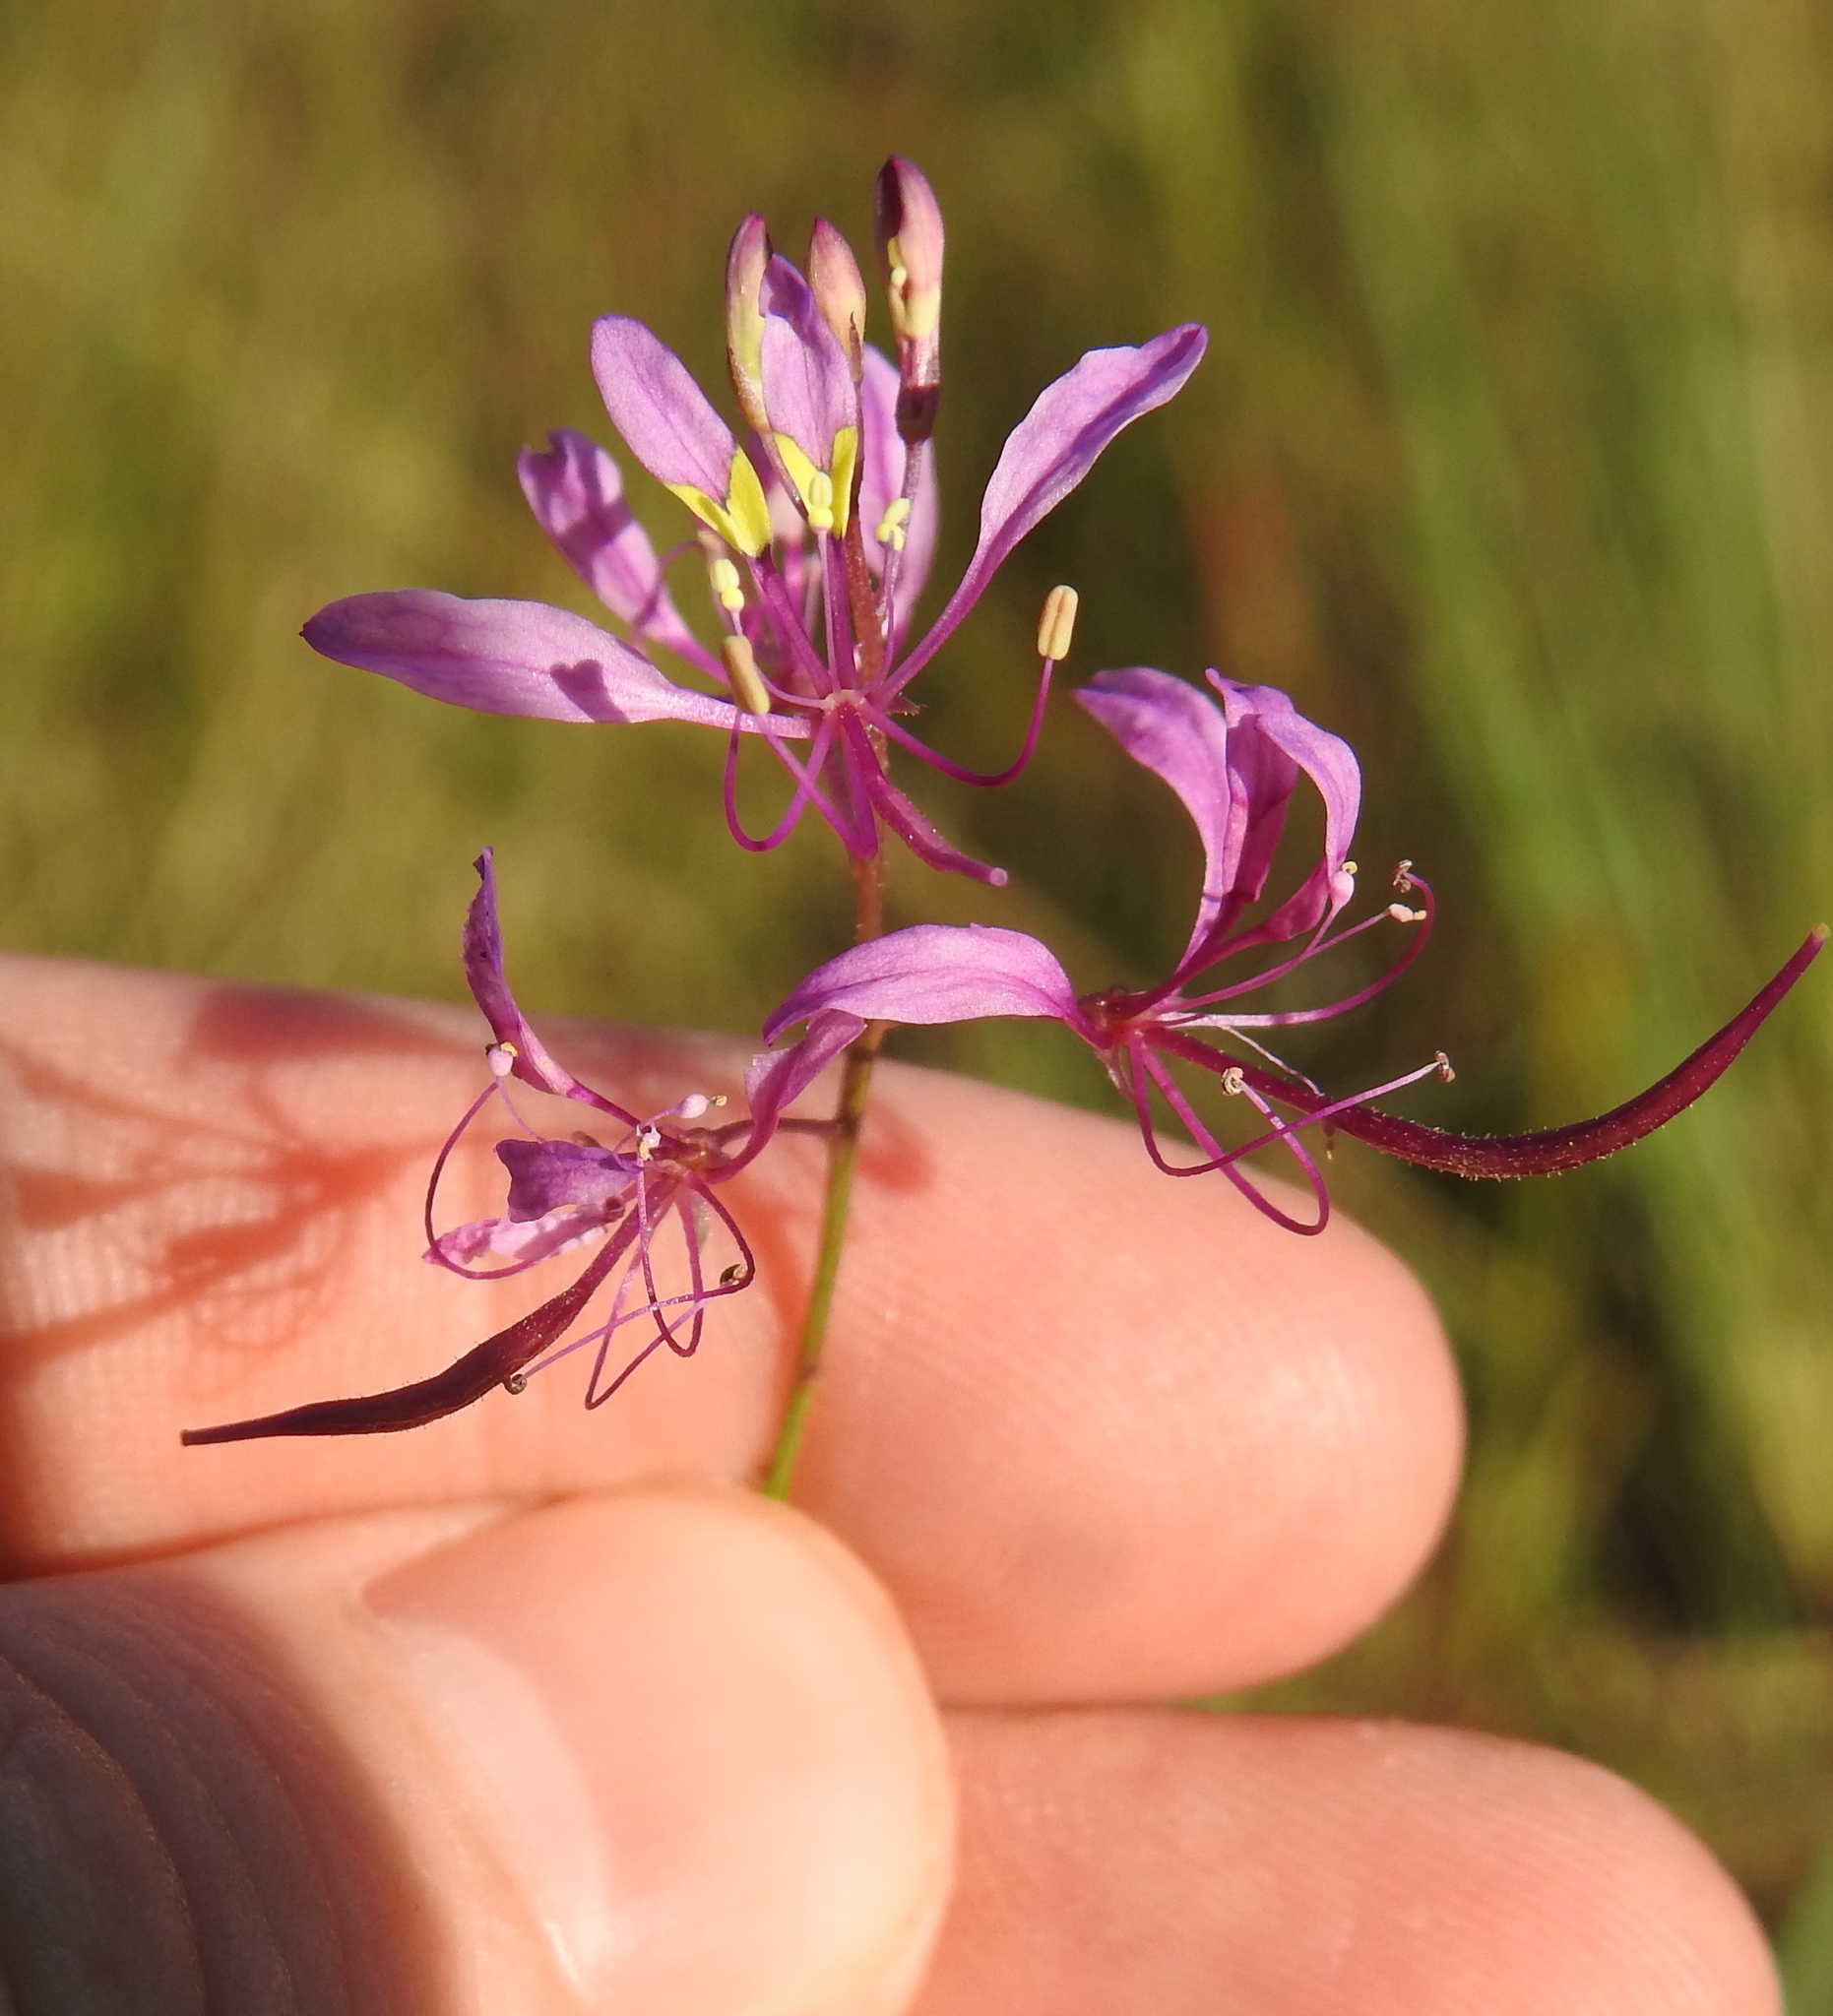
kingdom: Plantae
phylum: Tracheophyta
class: Magnoliopsida
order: Brassicales
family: Cleomaceae
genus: Sieruela
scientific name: Sieruela maculata
